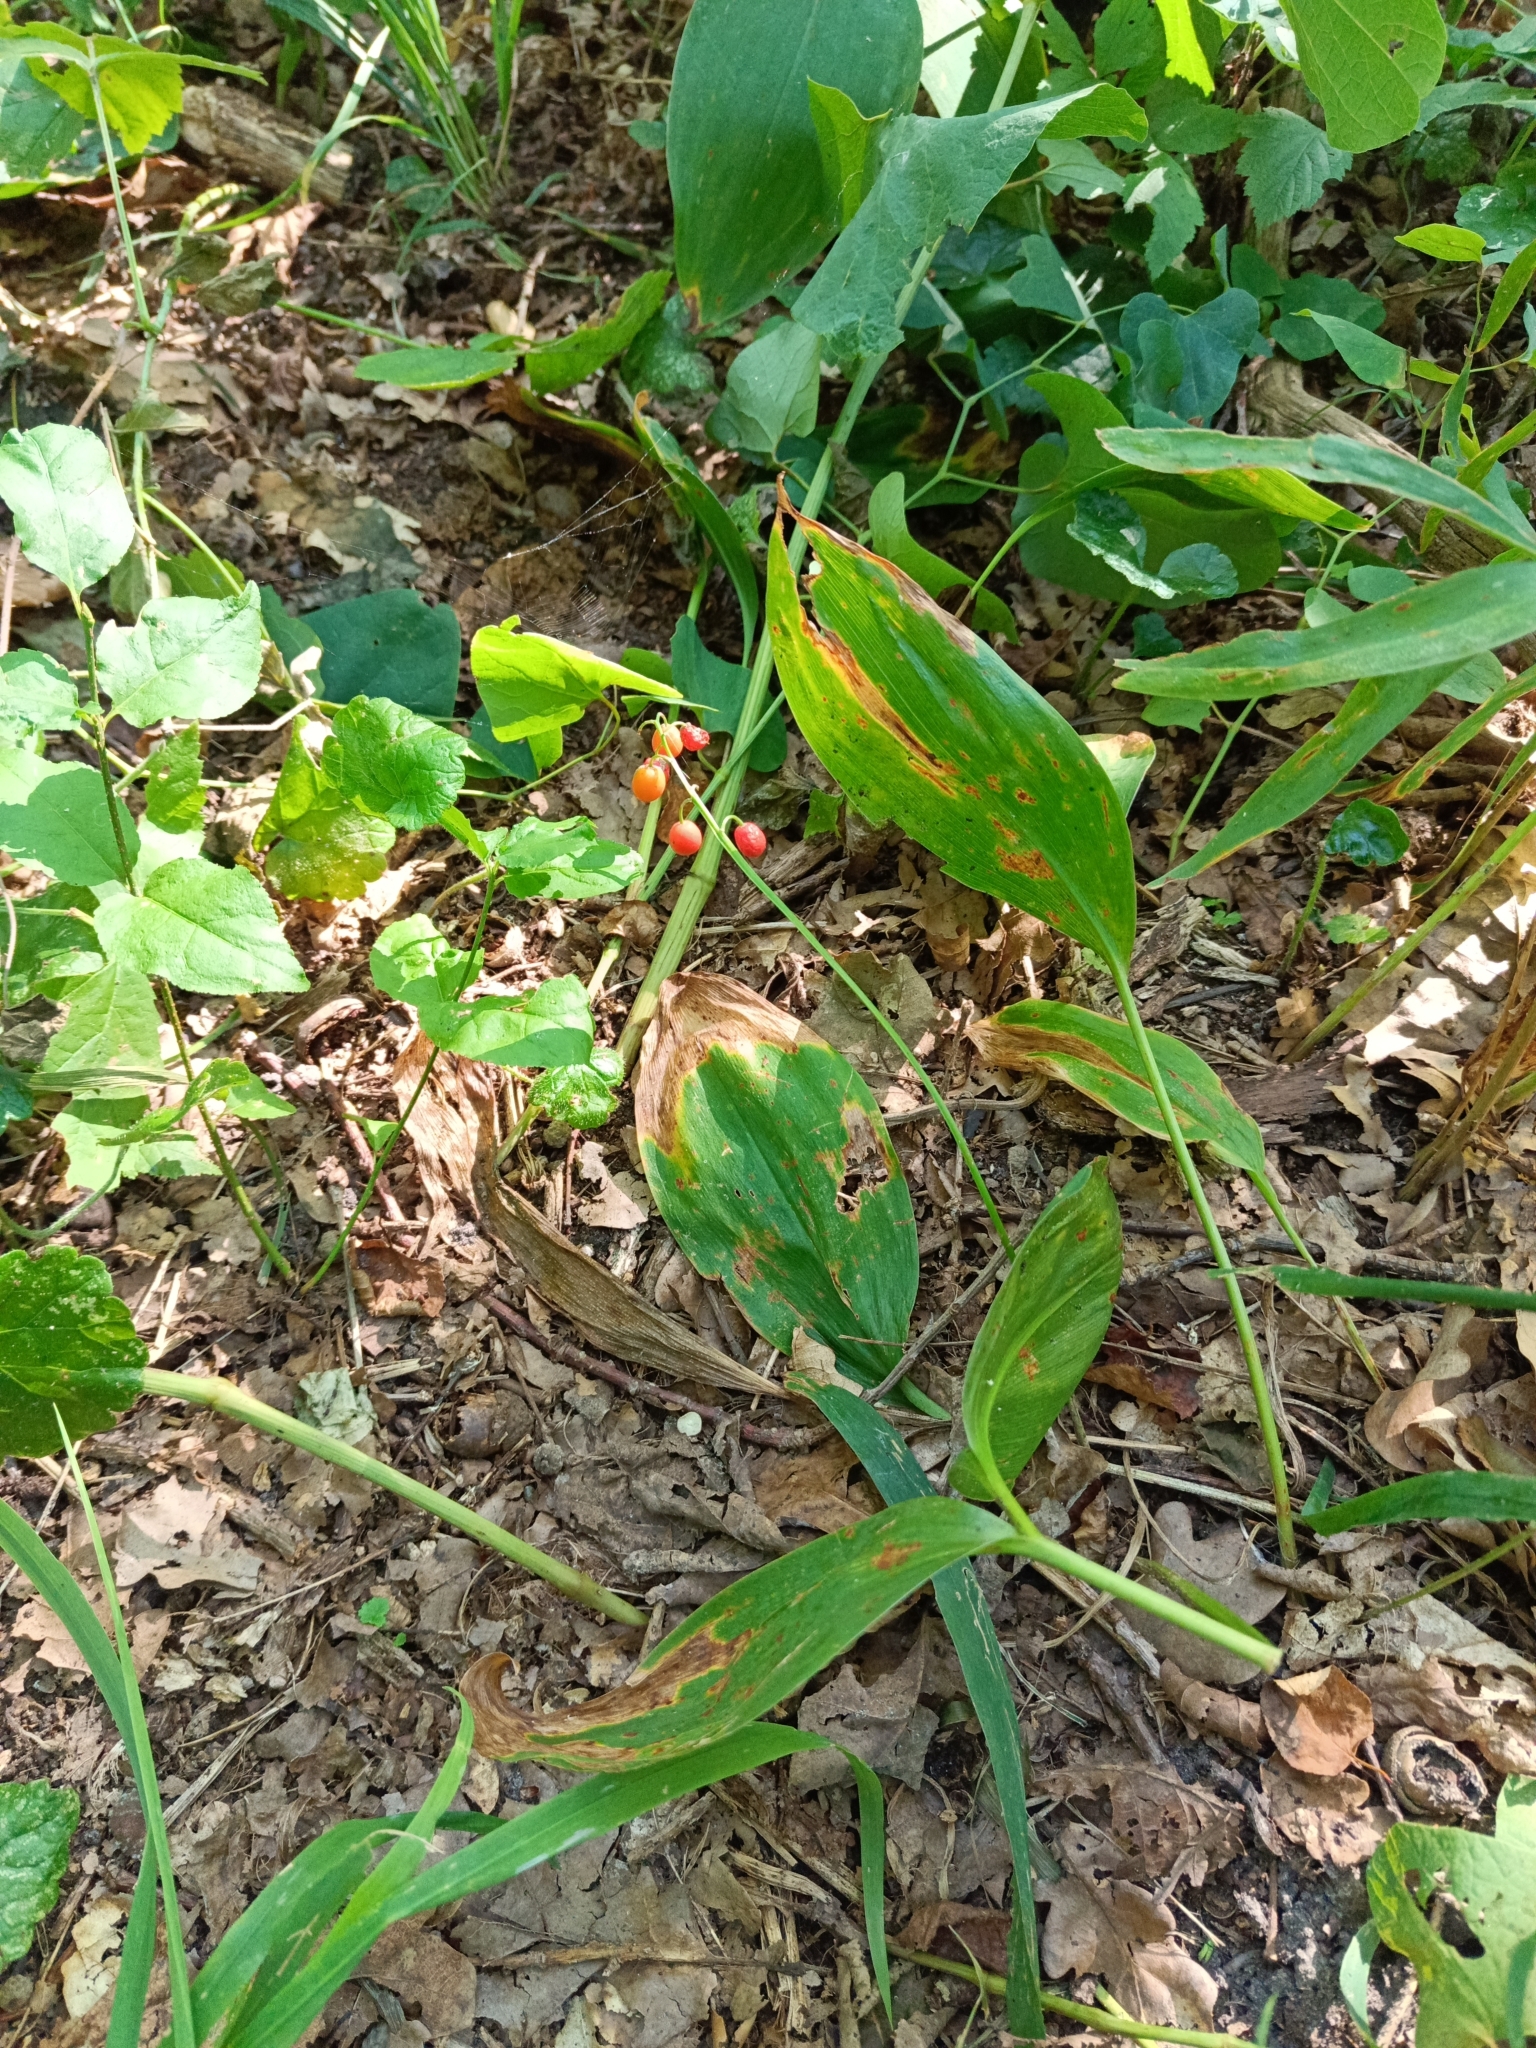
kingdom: Plantae
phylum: Tracheophyta
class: Liliopsida
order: Asparagales
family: Asparagaceae
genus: Convallaria
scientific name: Convallaria majalis
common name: Lily-of-the-valley
